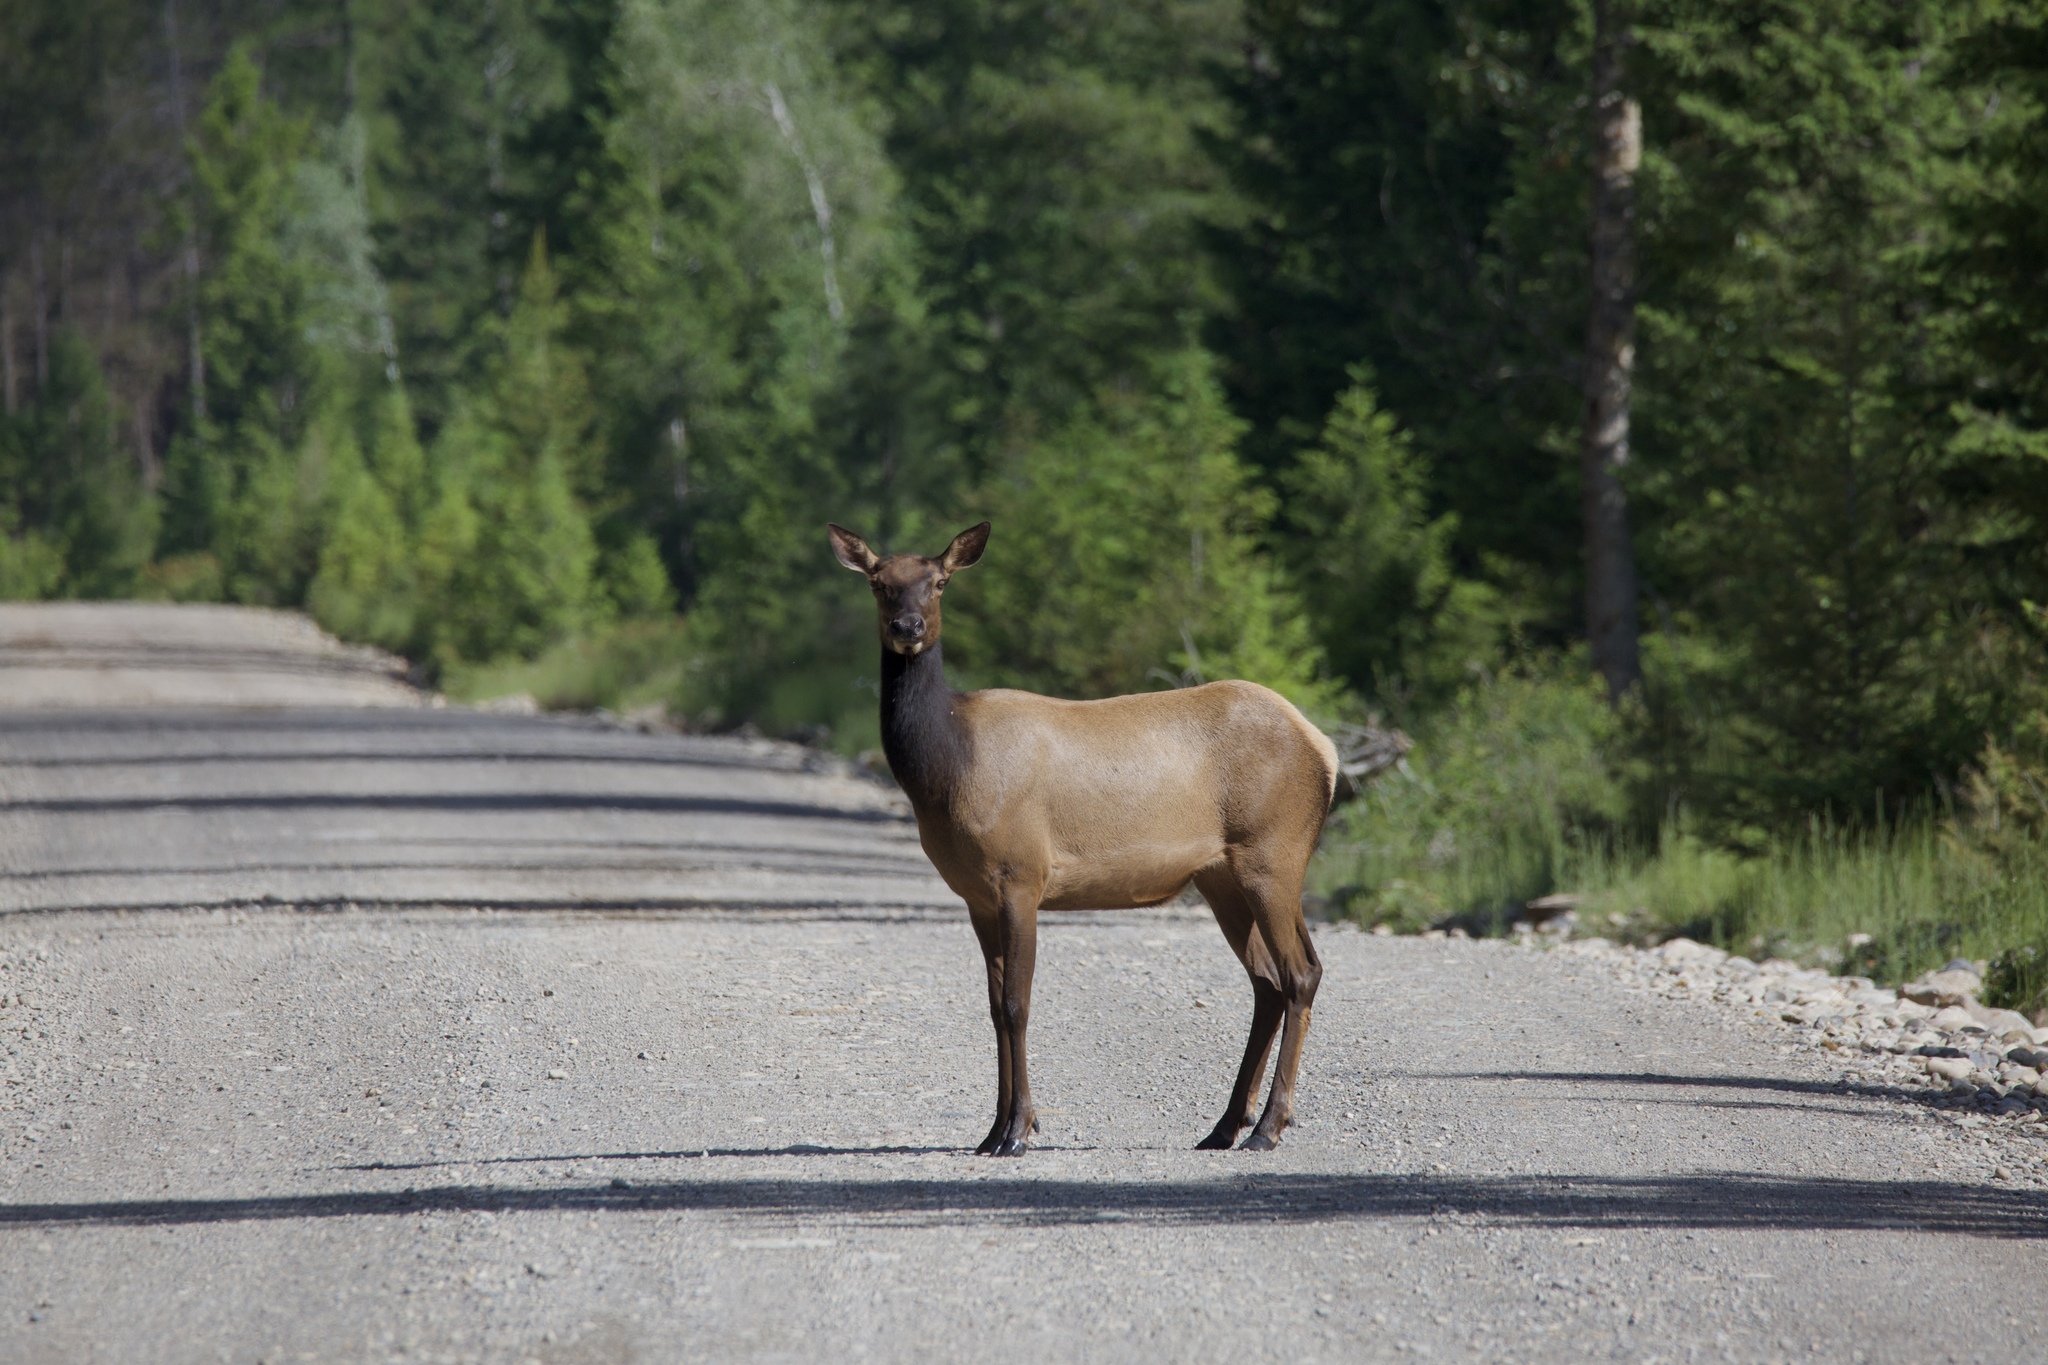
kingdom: Animalia
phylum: Chordata
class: Mammalia
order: Artiodactyla
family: Cervidae
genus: Cervus
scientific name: Cervus elaphus
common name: Red deer
